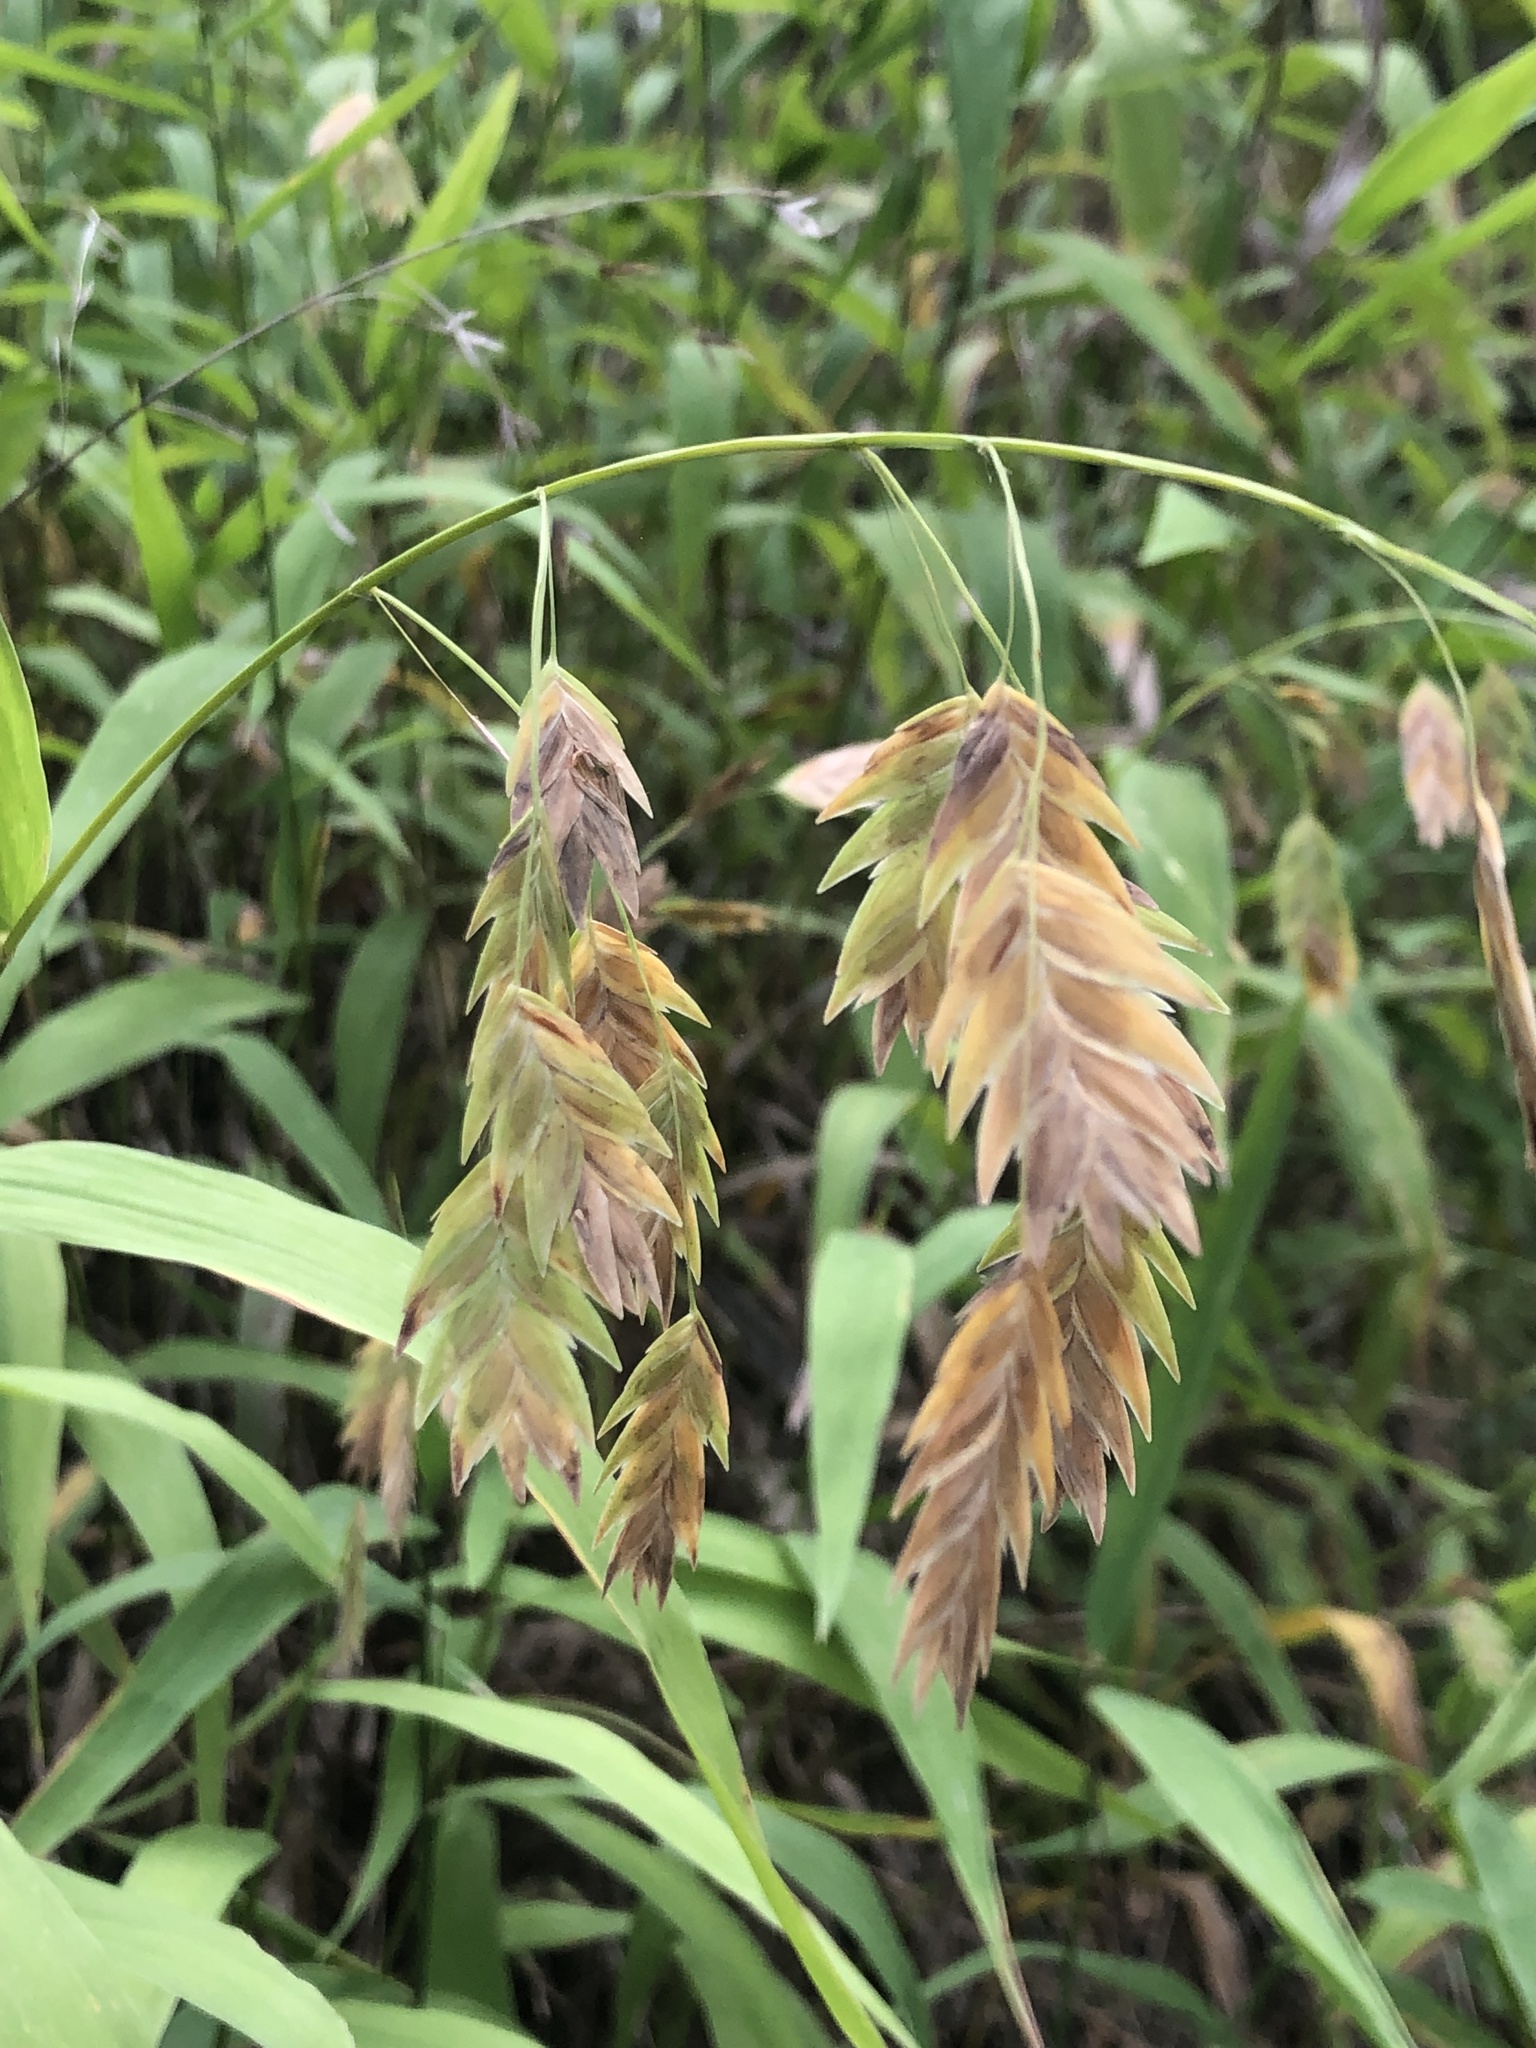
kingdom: Plantae
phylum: Tracheophyta
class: Liliopsida
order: Poales
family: Poaceae
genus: Chasmanthium
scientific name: Chasmanthium latifolium
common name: Broad-leaved chasmanthium
